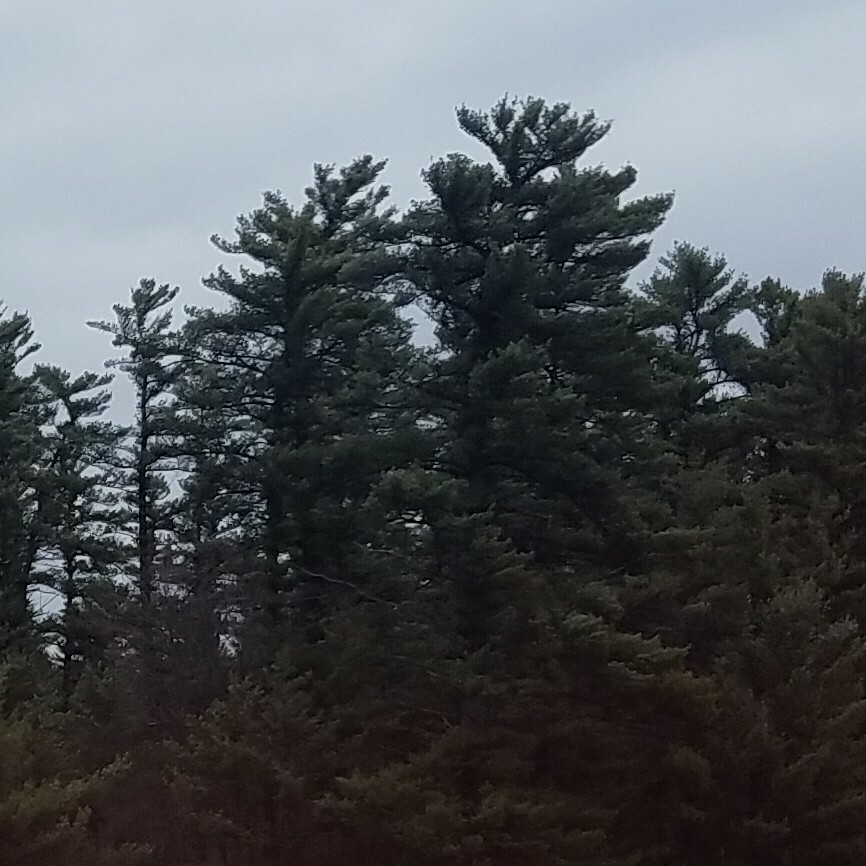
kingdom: Plantae
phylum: Tracheophyta
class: Pinopsida
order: Pinales
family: Pinaceae
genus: Pinus
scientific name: Pinus strobus
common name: Weymouth pine
